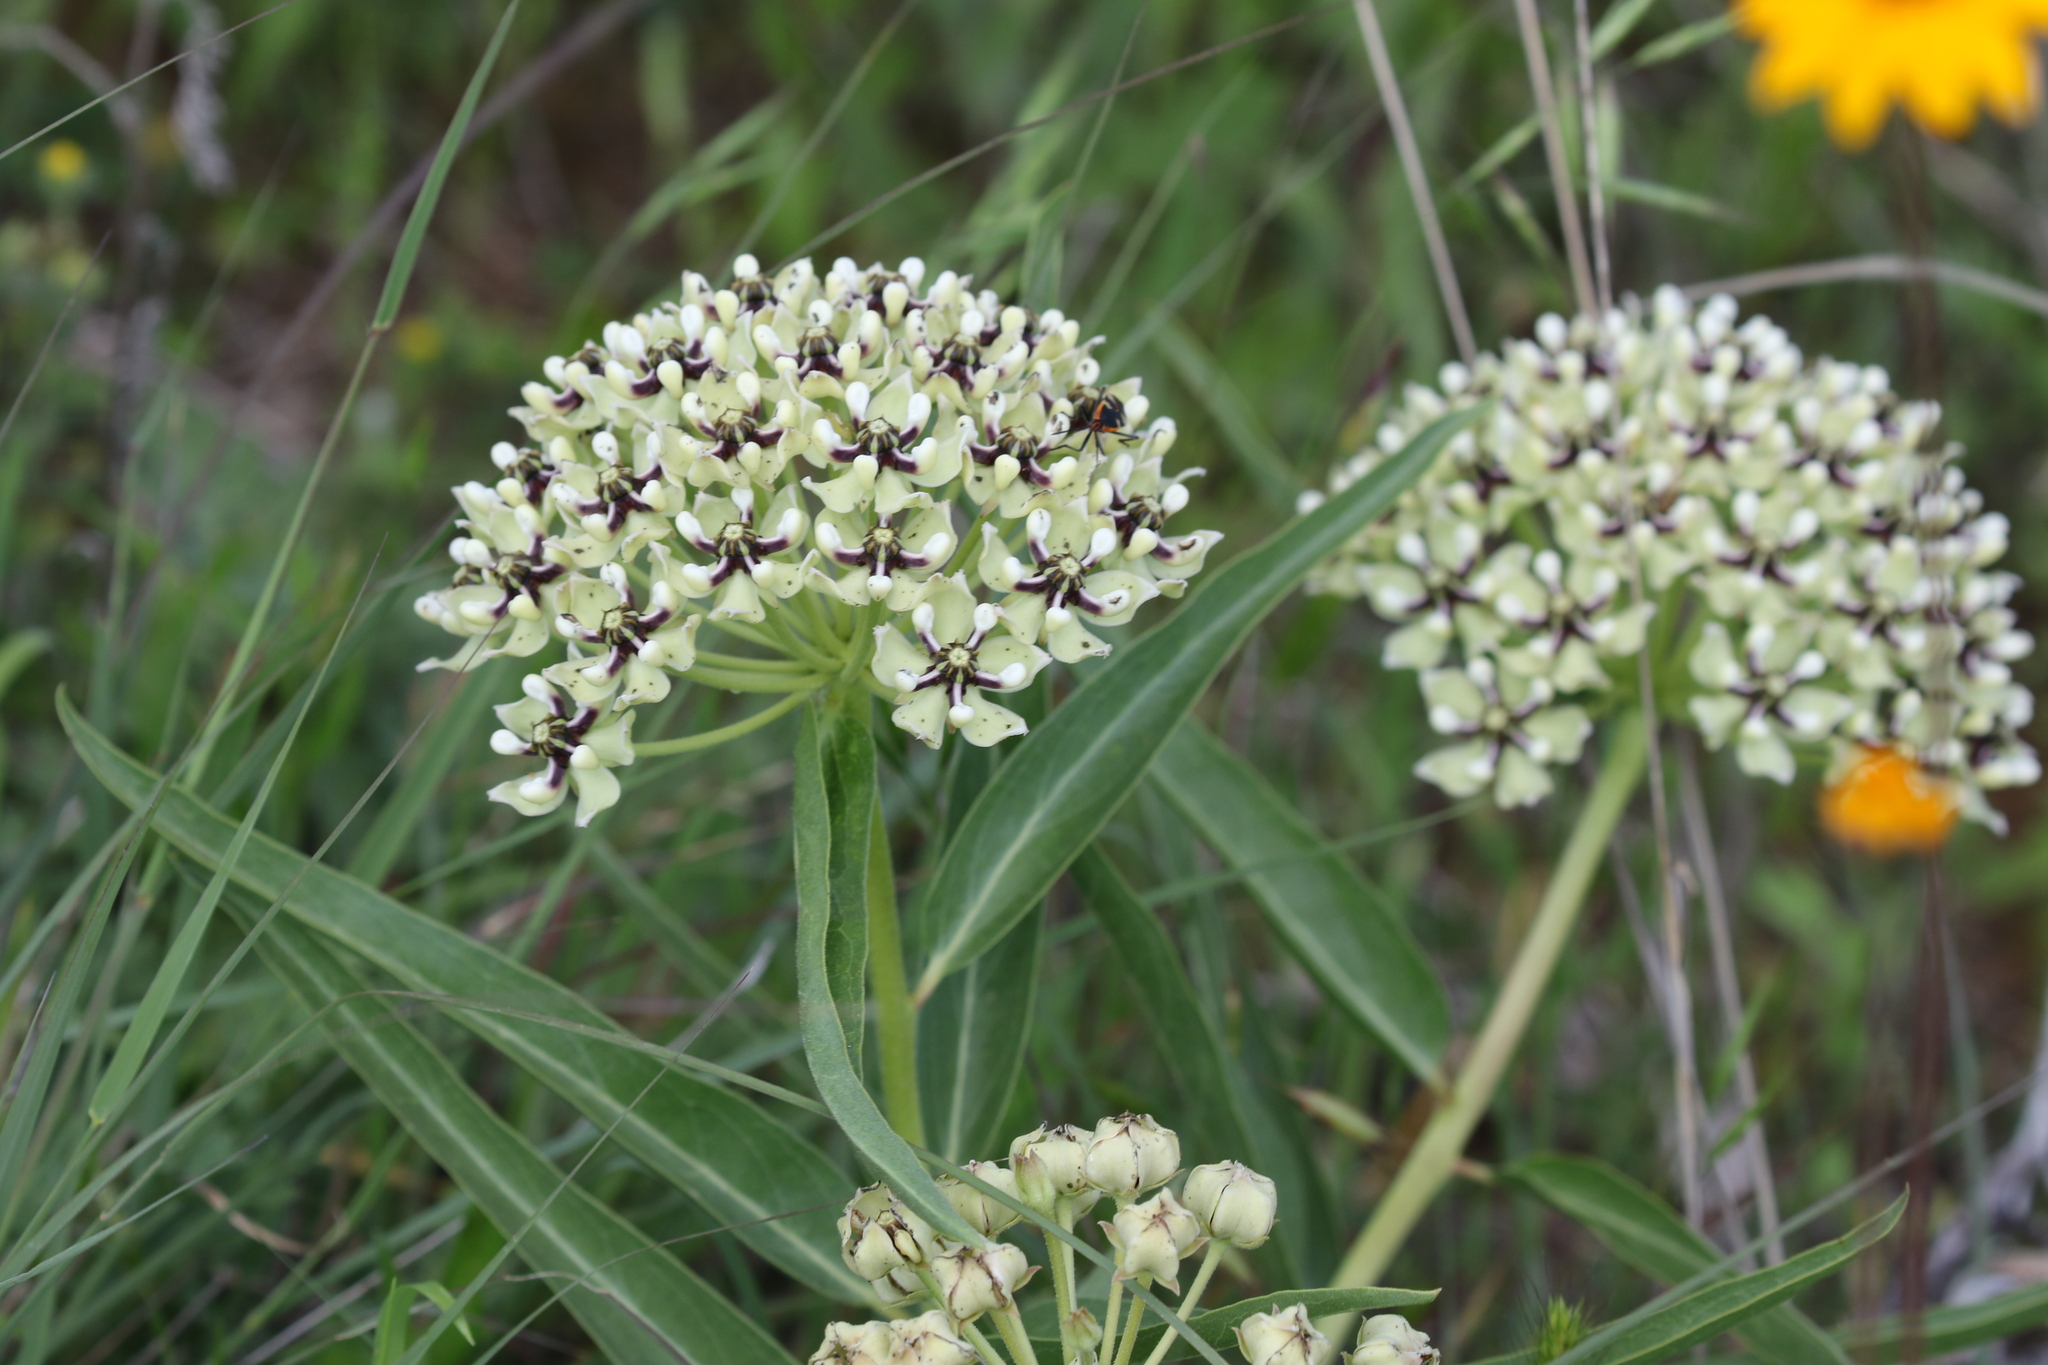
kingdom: Plantae
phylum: Tracheophyta
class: Magnoliopsida
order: Gentianales
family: Apocynaceae
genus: Asclepias
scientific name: Asclepias asperula
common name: Antelope horns
